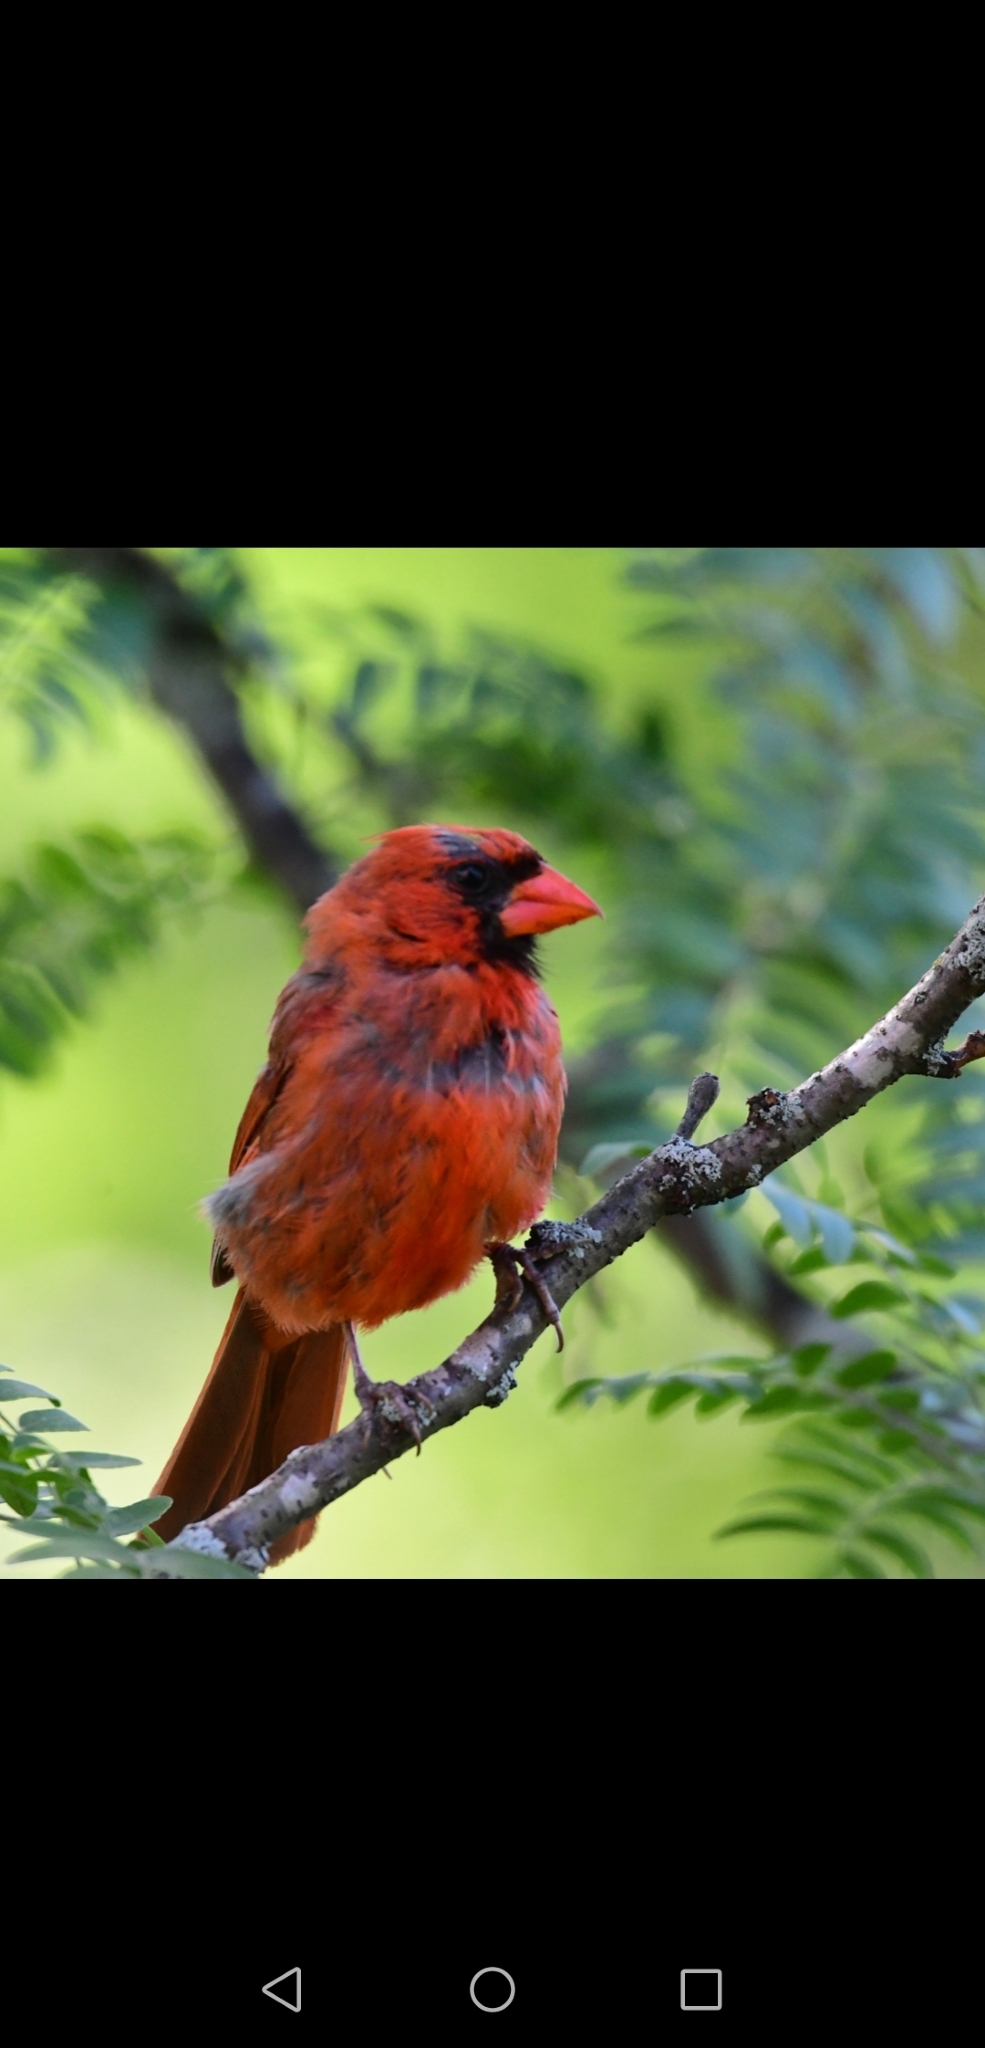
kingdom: Animalia
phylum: Chordata
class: Aves
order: Passeriformes
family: Cardinalidae
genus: Cardinalis
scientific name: Cardinalis cardinalis
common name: Northern cardinal
